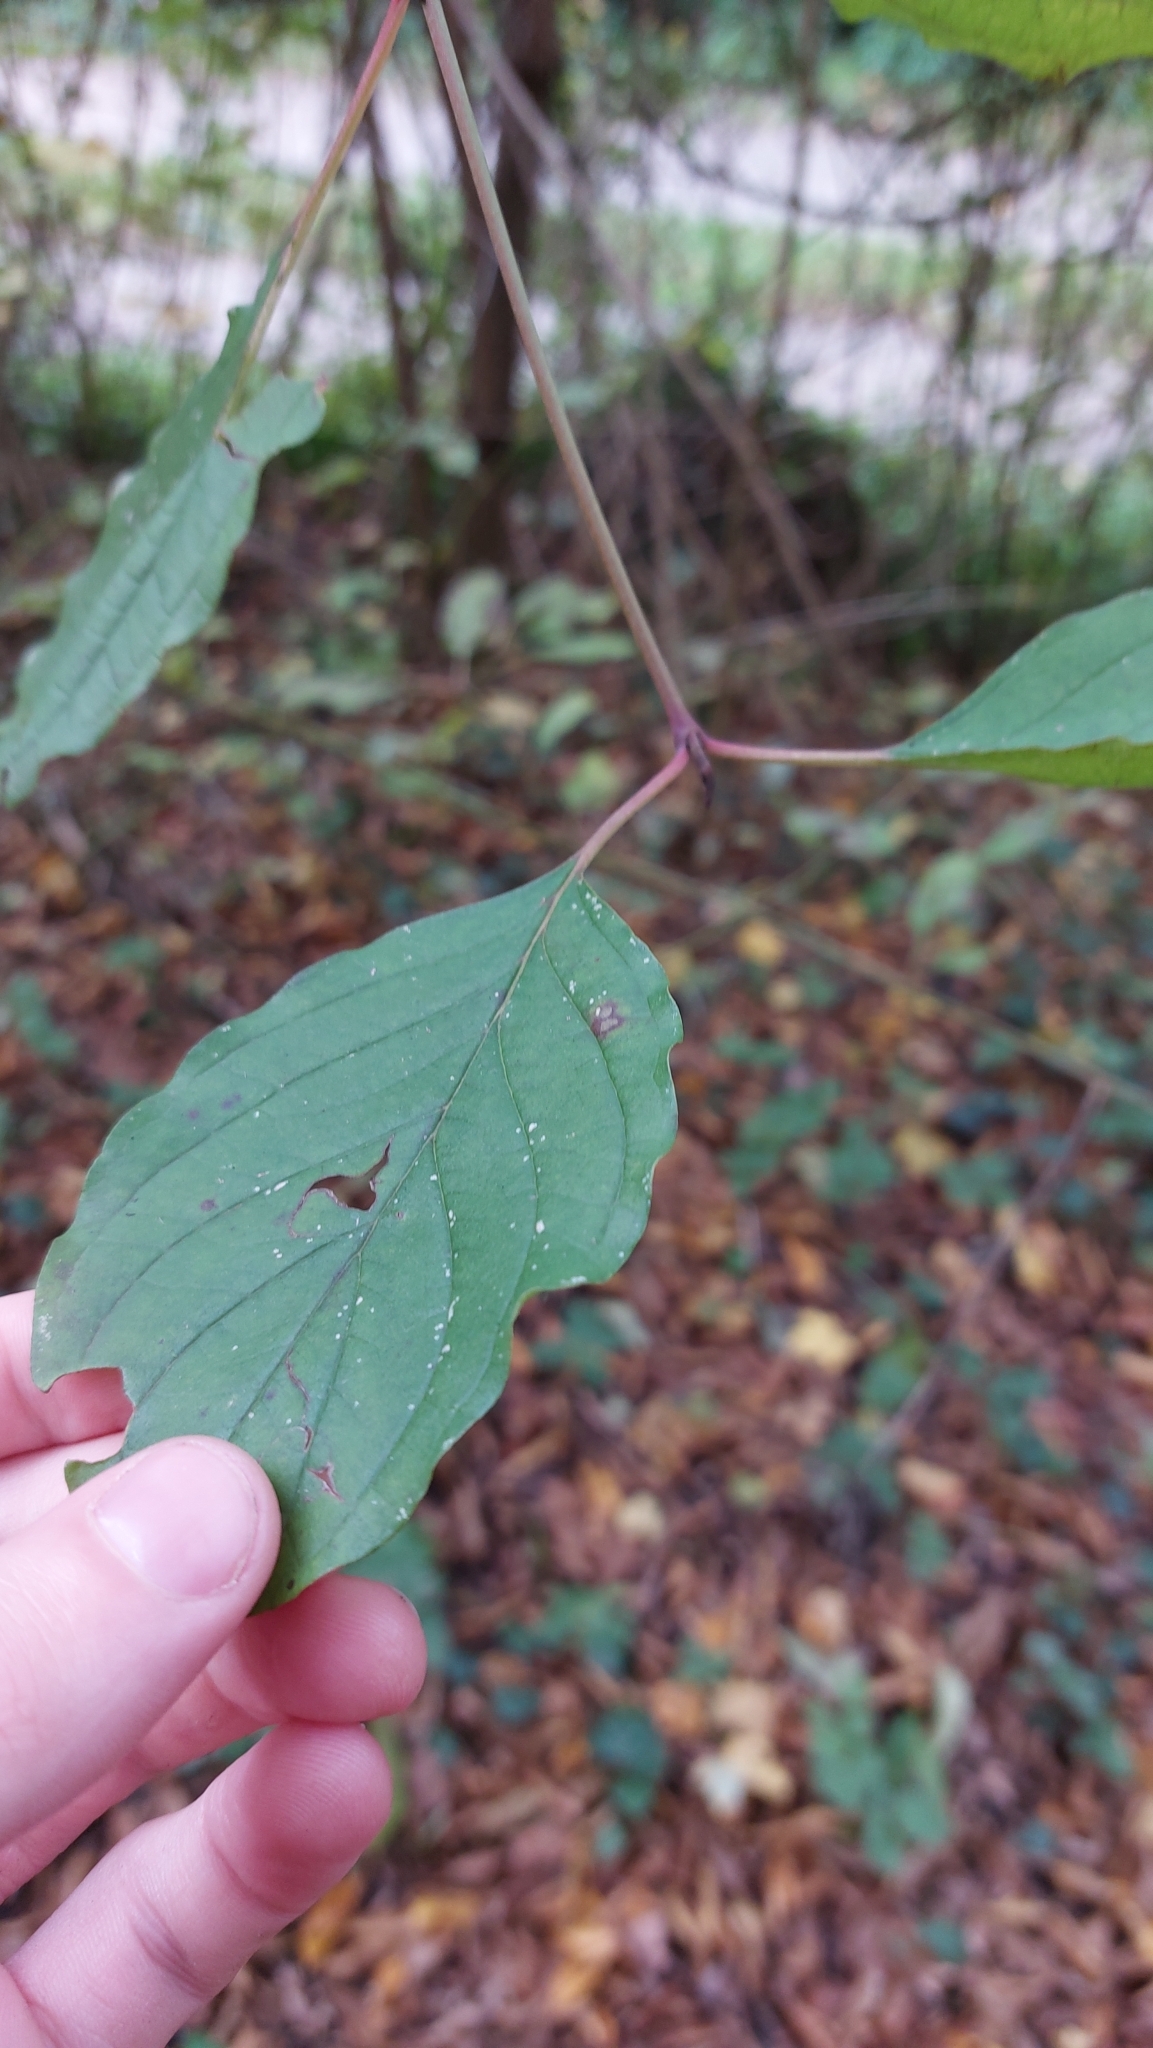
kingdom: Plantae
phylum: Tracheophyta
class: Magnoliopsida
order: Cornales
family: Cornaceae
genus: Cornus
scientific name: Cornus sanguinea
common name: Dogwood
